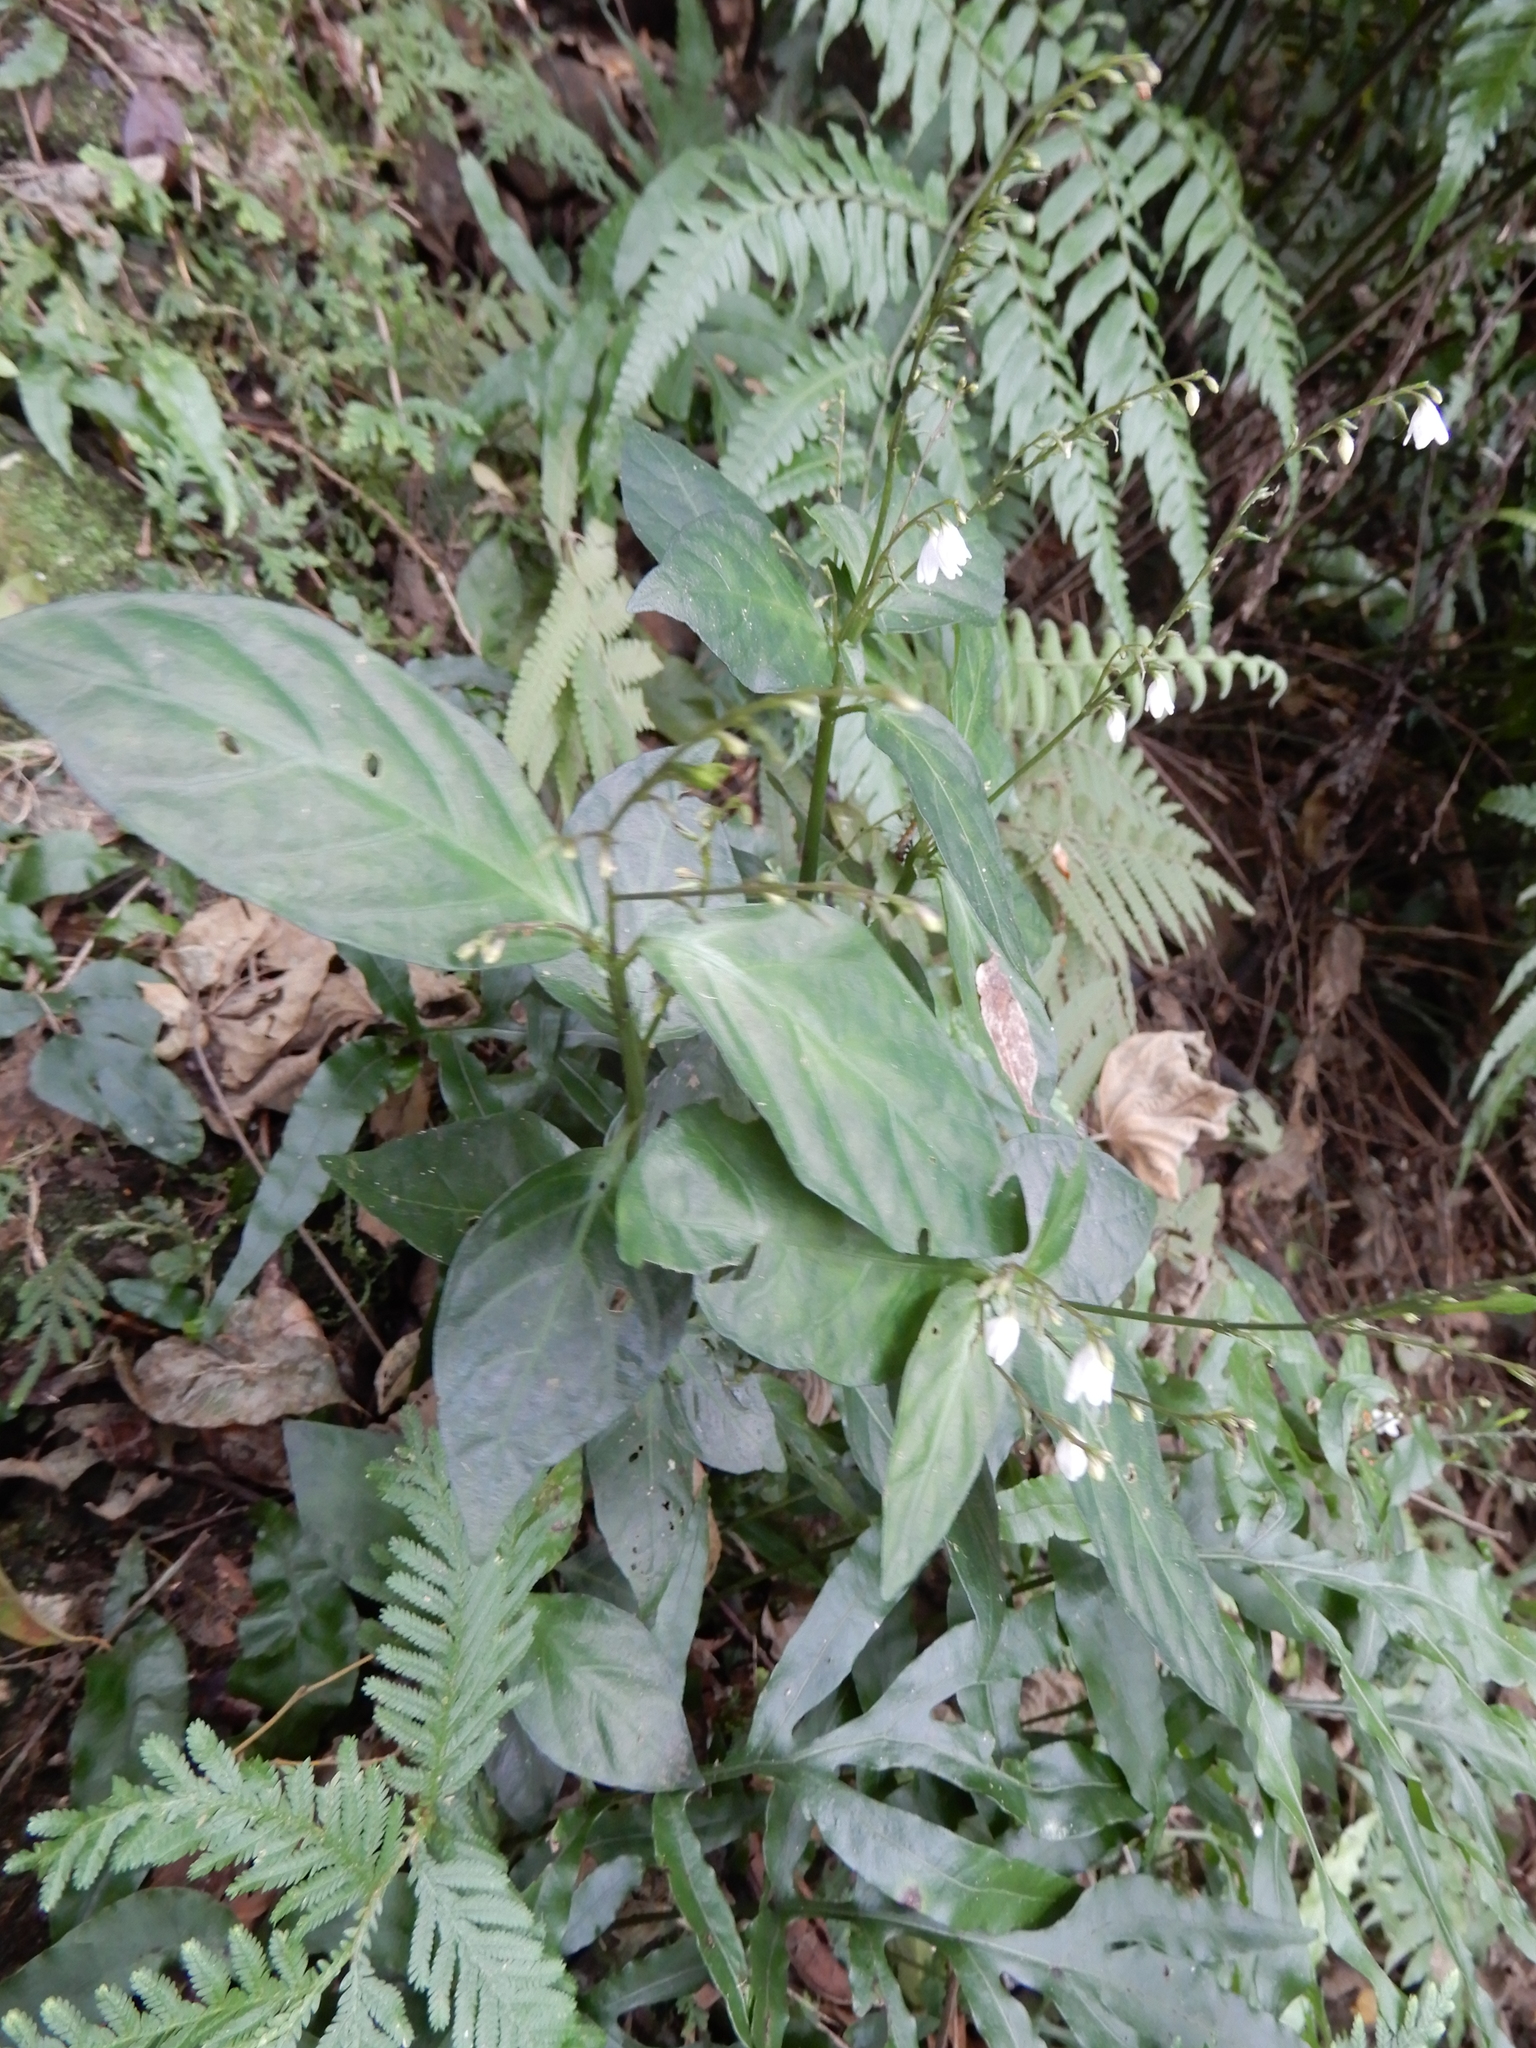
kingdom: Plantae
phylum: Tracheophyta
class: Magnoliopsida
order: Lamiales
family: Acanthaceae
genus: Codonacanthus
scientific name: Codonacanthus pauciflorus
